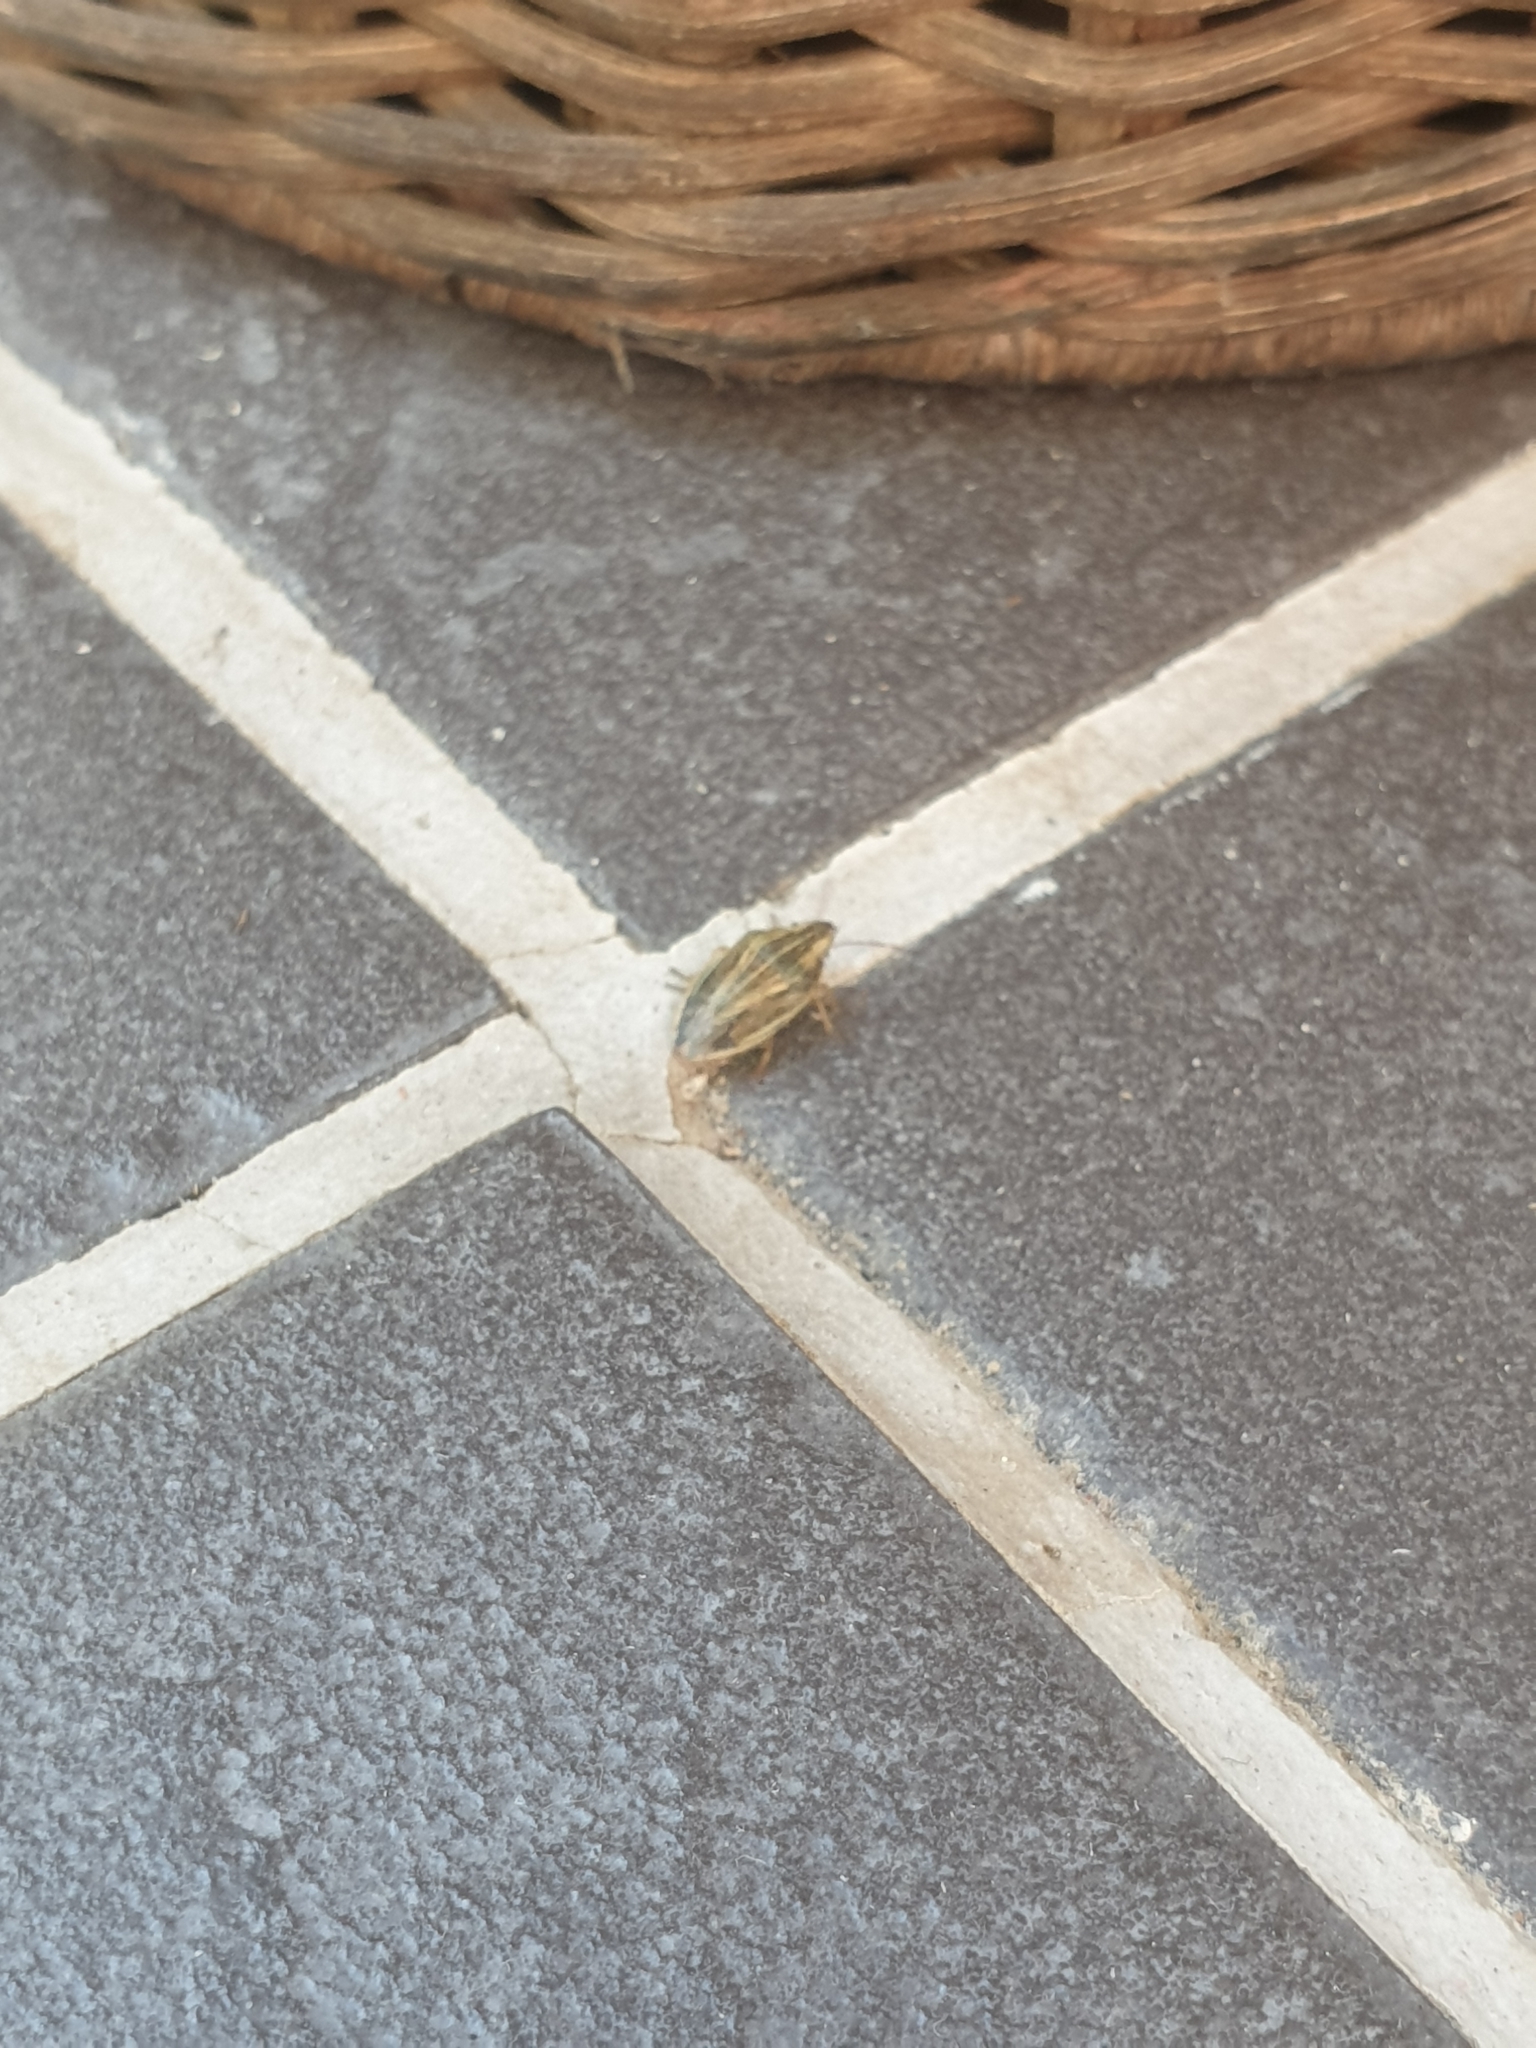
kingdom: Animalia
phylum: Arthropoda
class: Insecta
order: Hemiptera
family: Pentatomidae
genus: Aelia
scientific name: Aelia acuminata
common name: Bishop's mitre
